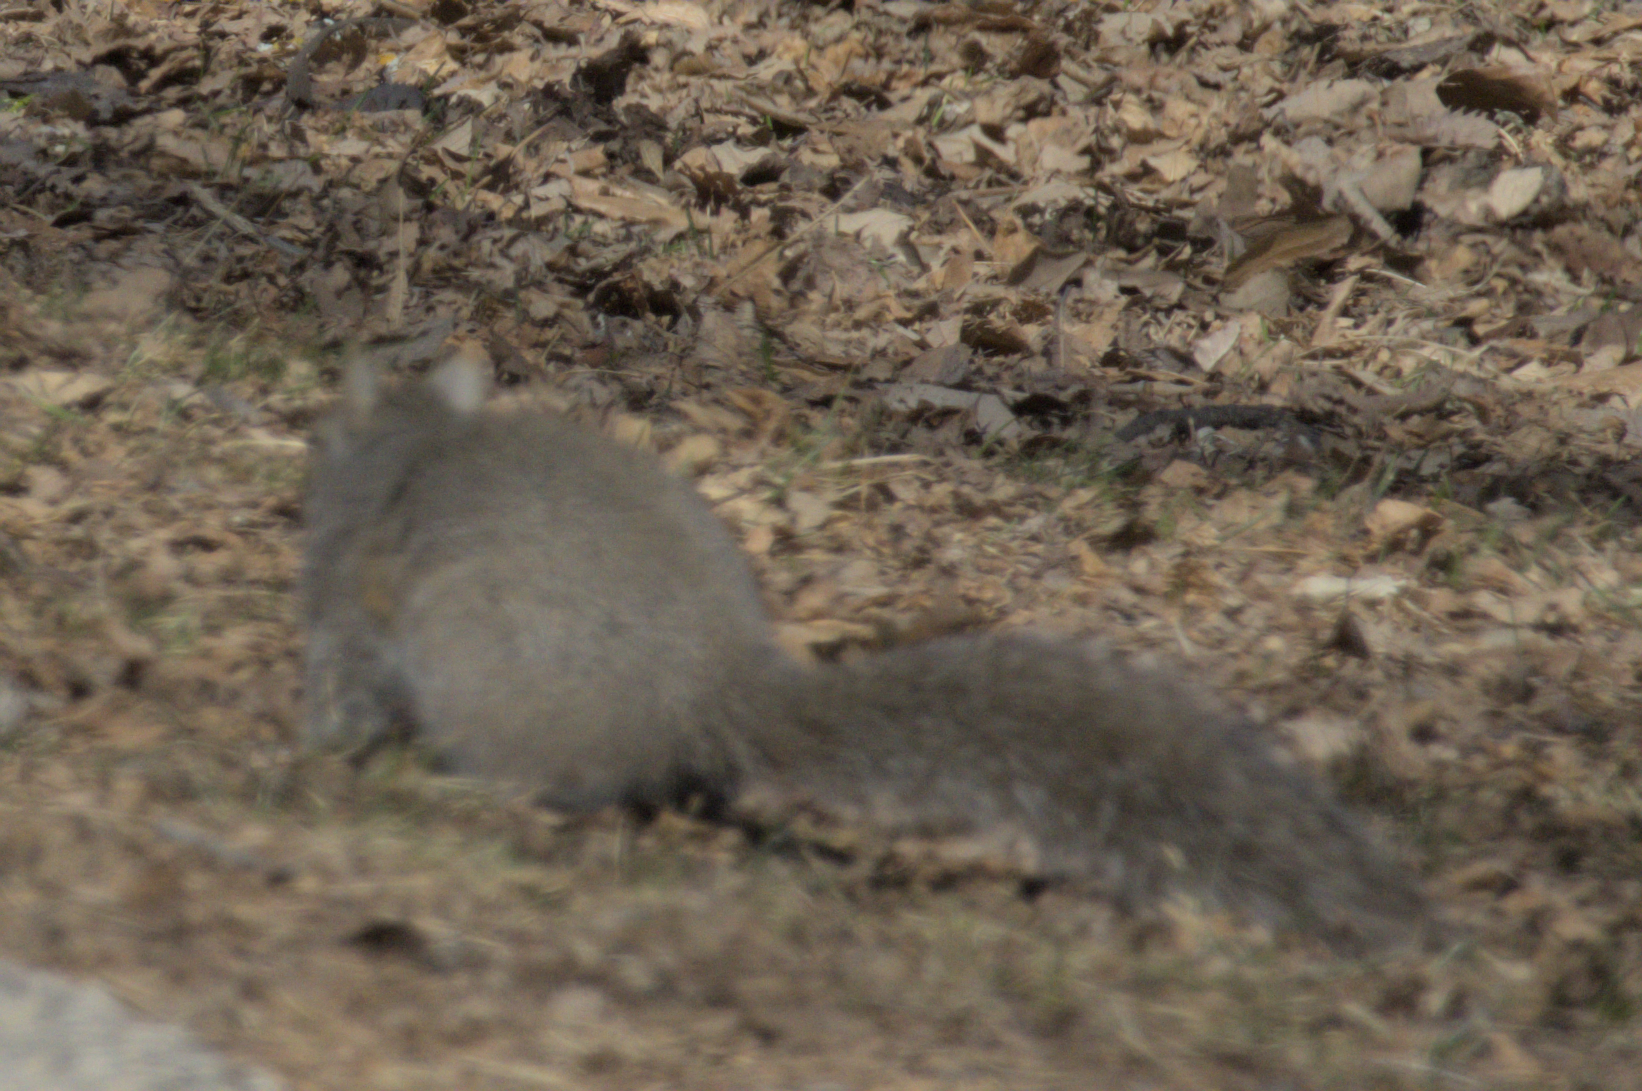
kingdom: Animalia
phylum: Chordata
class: Mammalia
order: Rodentia
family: Sciuridae
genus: Sciurus
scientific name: Sciurus carolinensis
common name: Eastern gray squirrel
